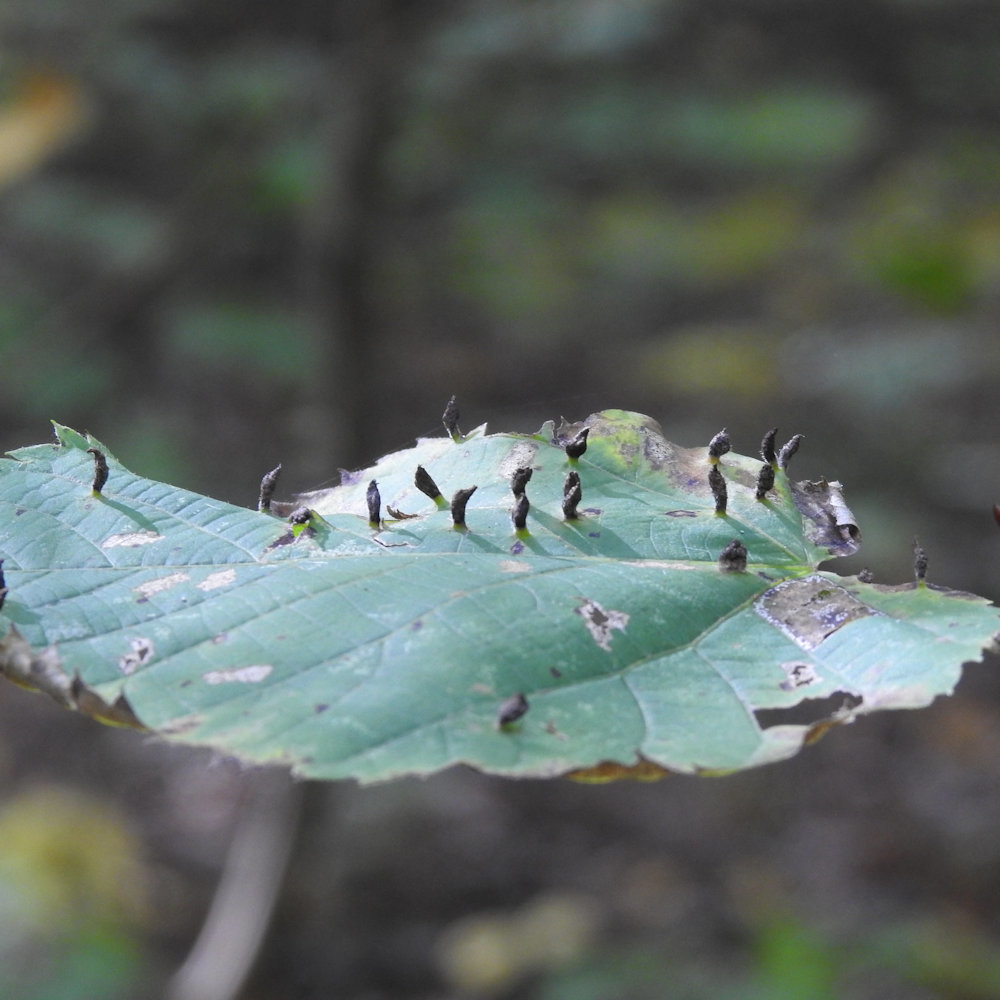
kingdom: Animalia
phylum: Arthropoda
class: Arachnida
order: Trombidiformes
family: Eriophyidae
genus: Eriophyes
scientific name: Eriophyes tiliae
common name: Red nail gall mite
